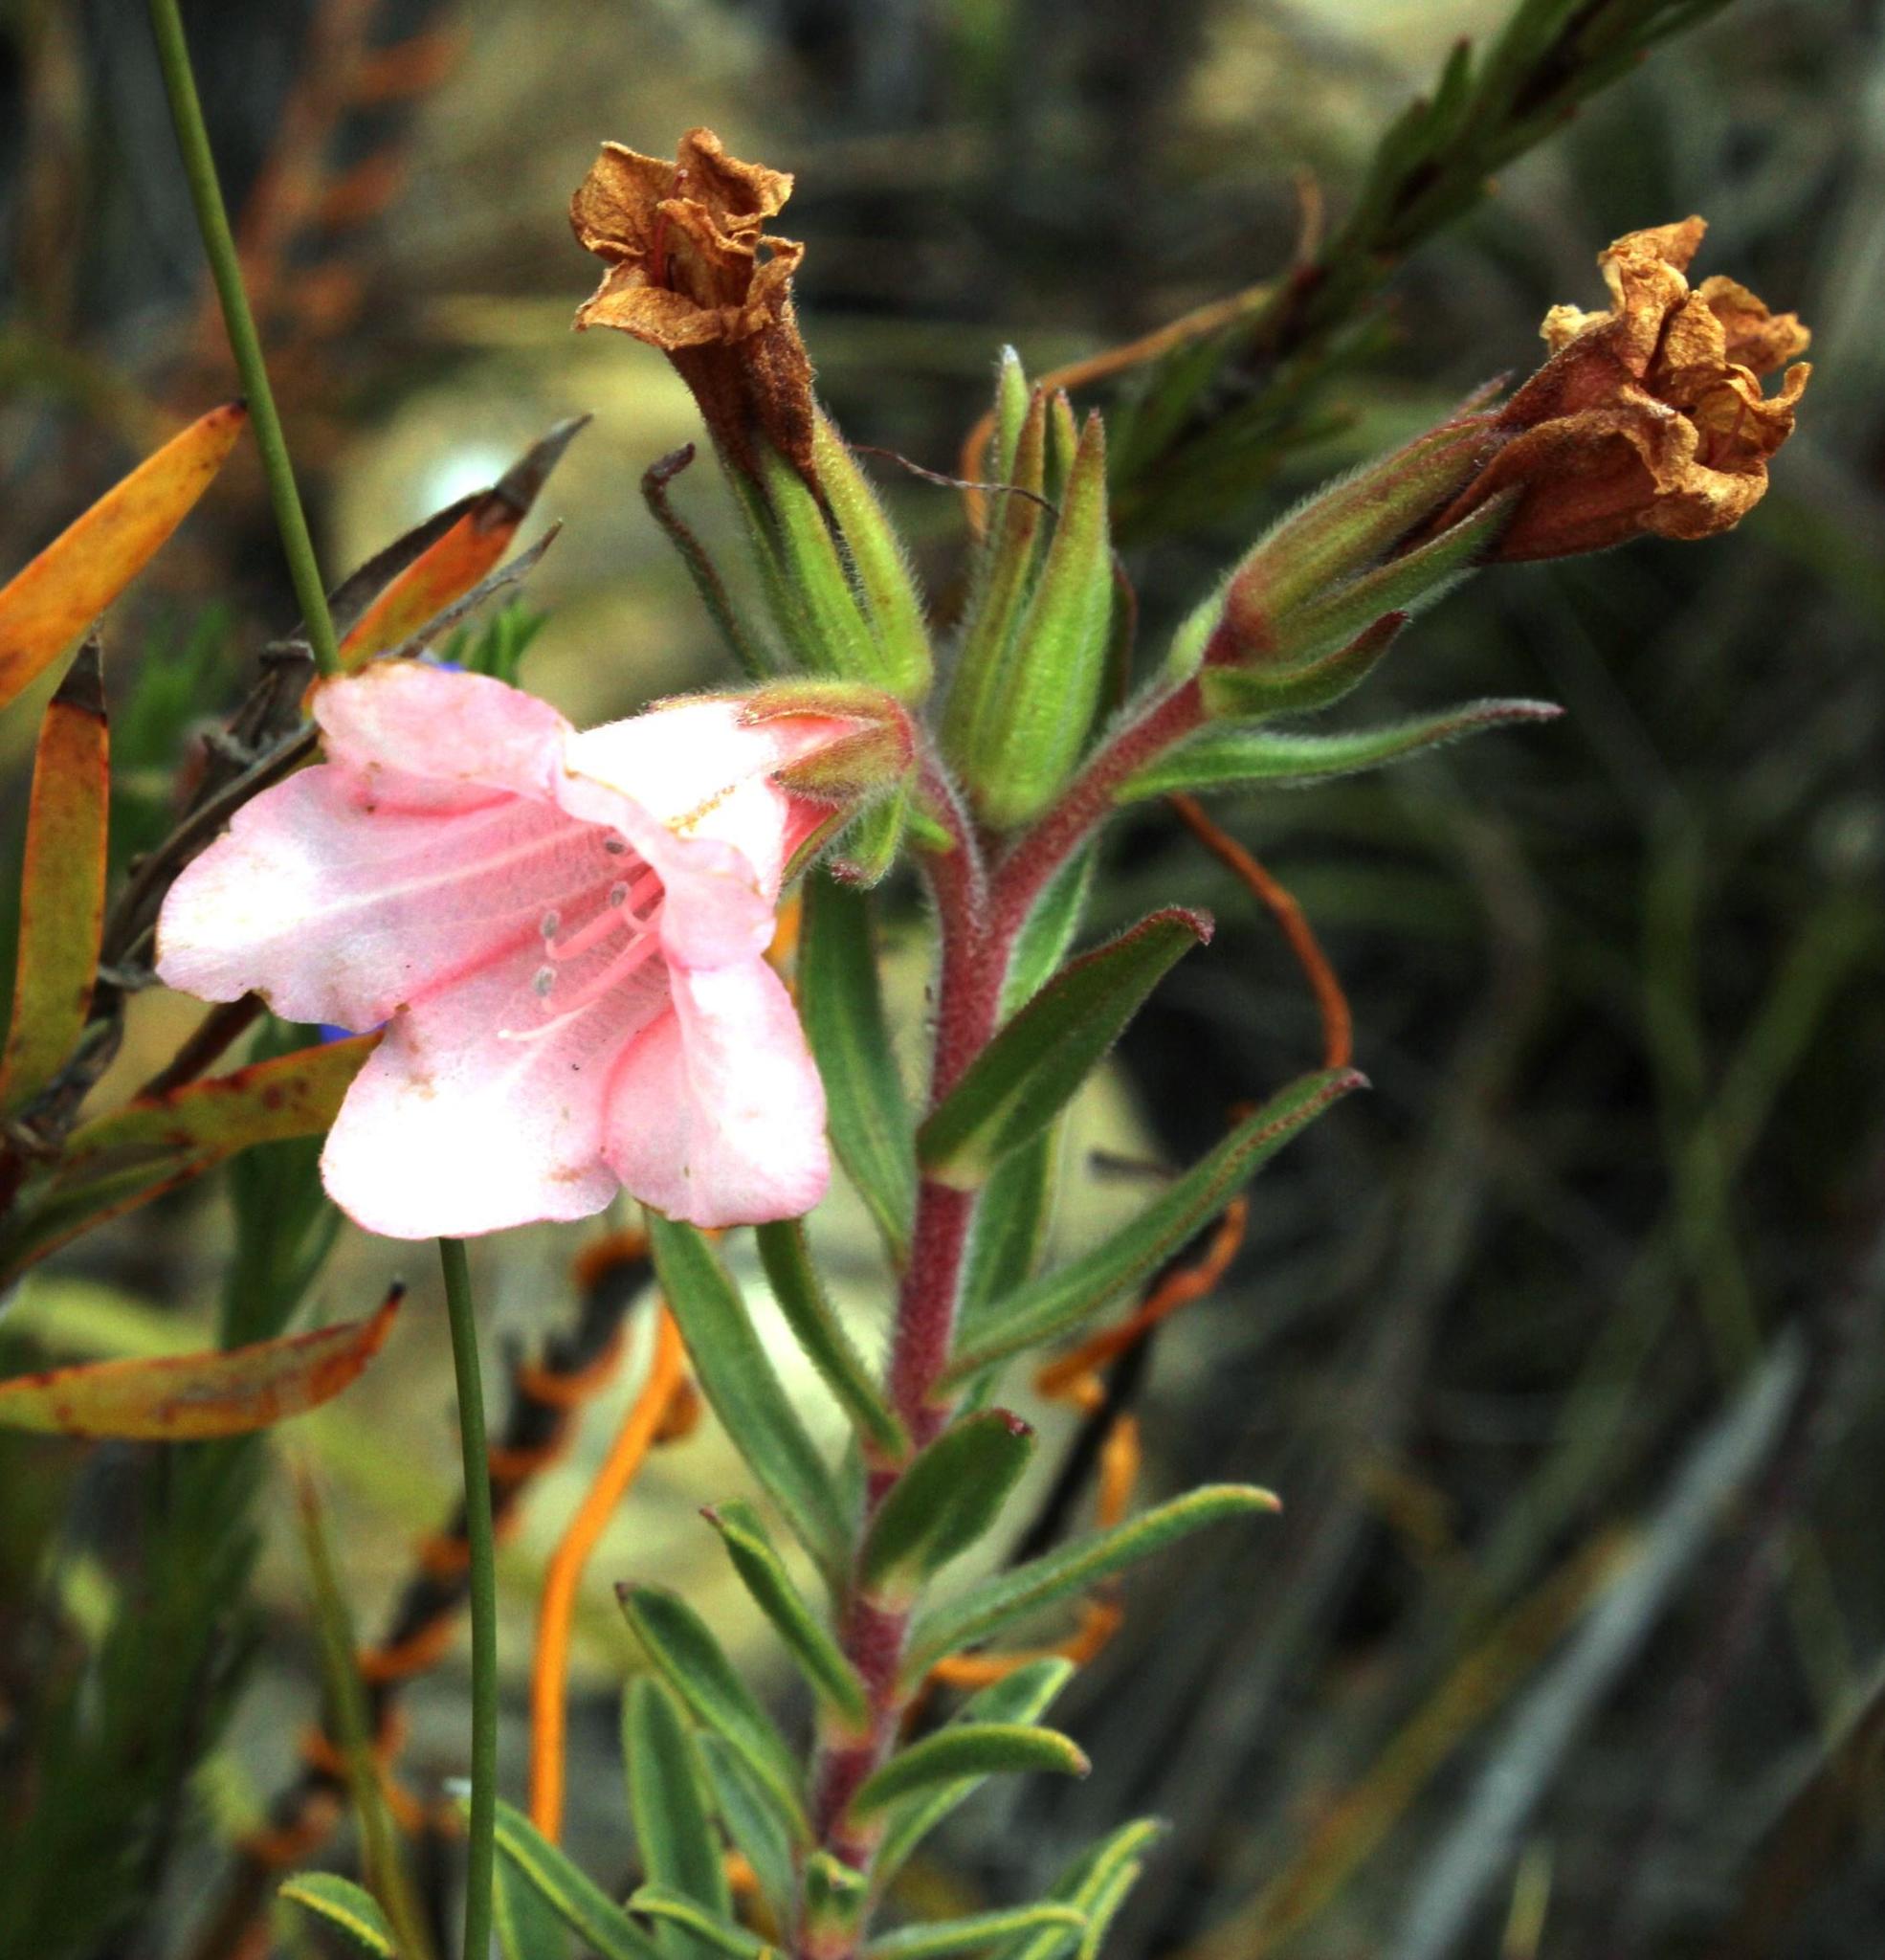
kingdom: Plantae
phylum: Tracheophyta
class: Magnoliopsida
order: Boraginales
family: Boraginaceae
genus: Lobostemon
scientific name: Lobostemon fruticosus
